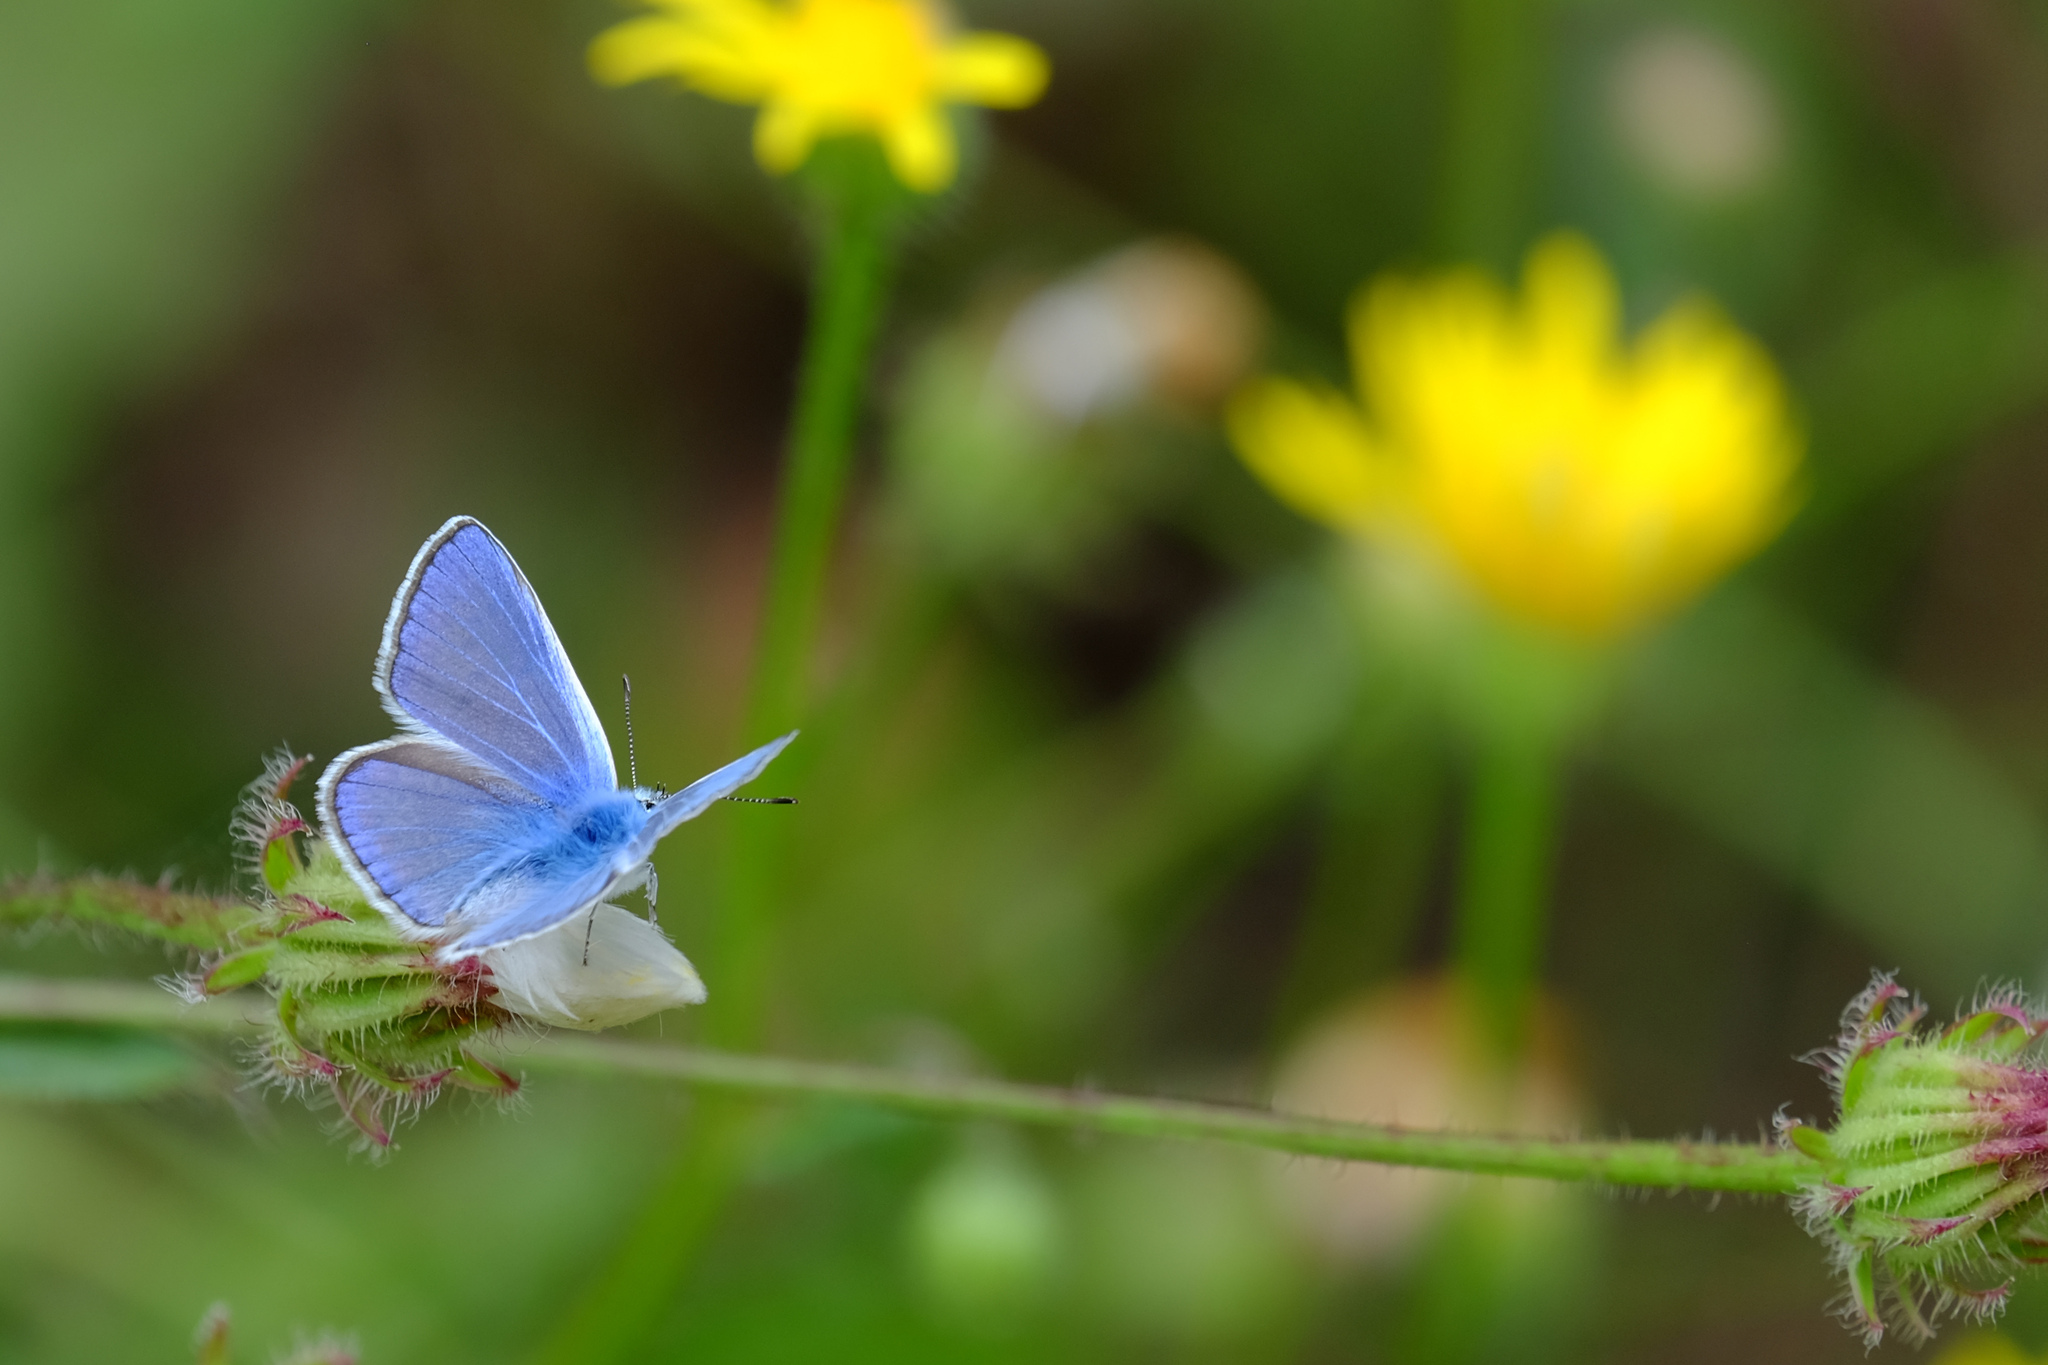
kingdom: Animalia
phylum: Arthropoda
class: Insecta
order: Lepidoptera
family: Lycaenidae
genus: Polyommatus
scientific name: Polyommatus icarus
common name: Common blue
